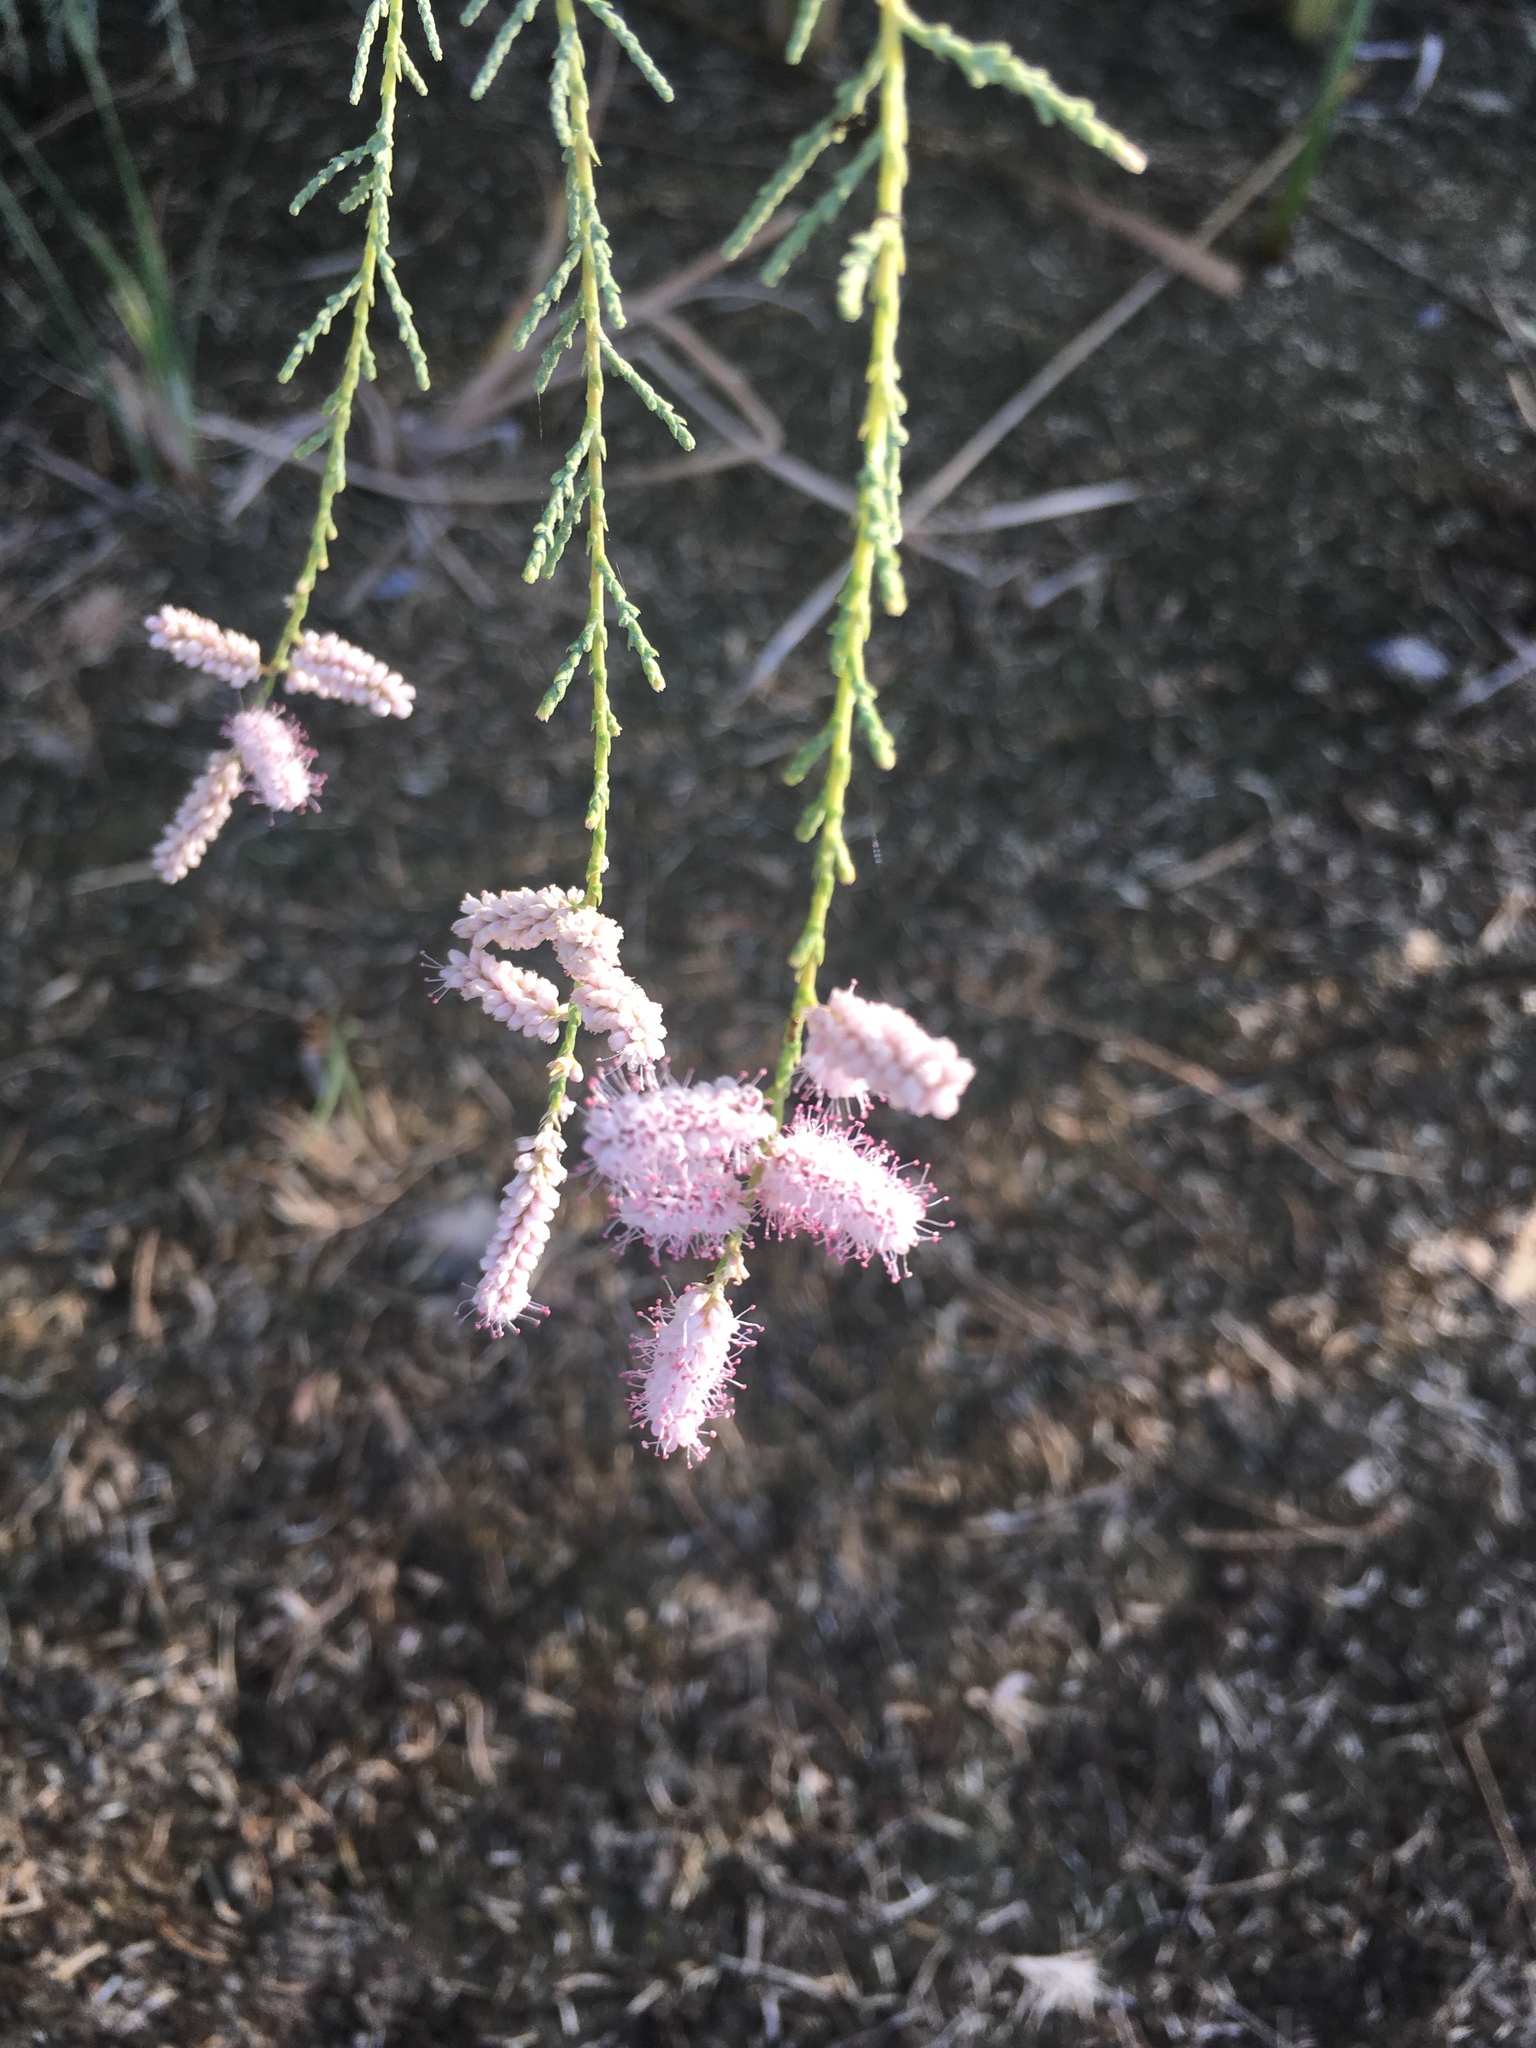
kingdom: Plantae
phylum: Tracheophyta
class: Magnoliopsida
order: Caryophyllales
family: Tamaricaceae
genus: Tamarix
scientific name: Tamarix ramosissima
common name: Pink tamarisk
